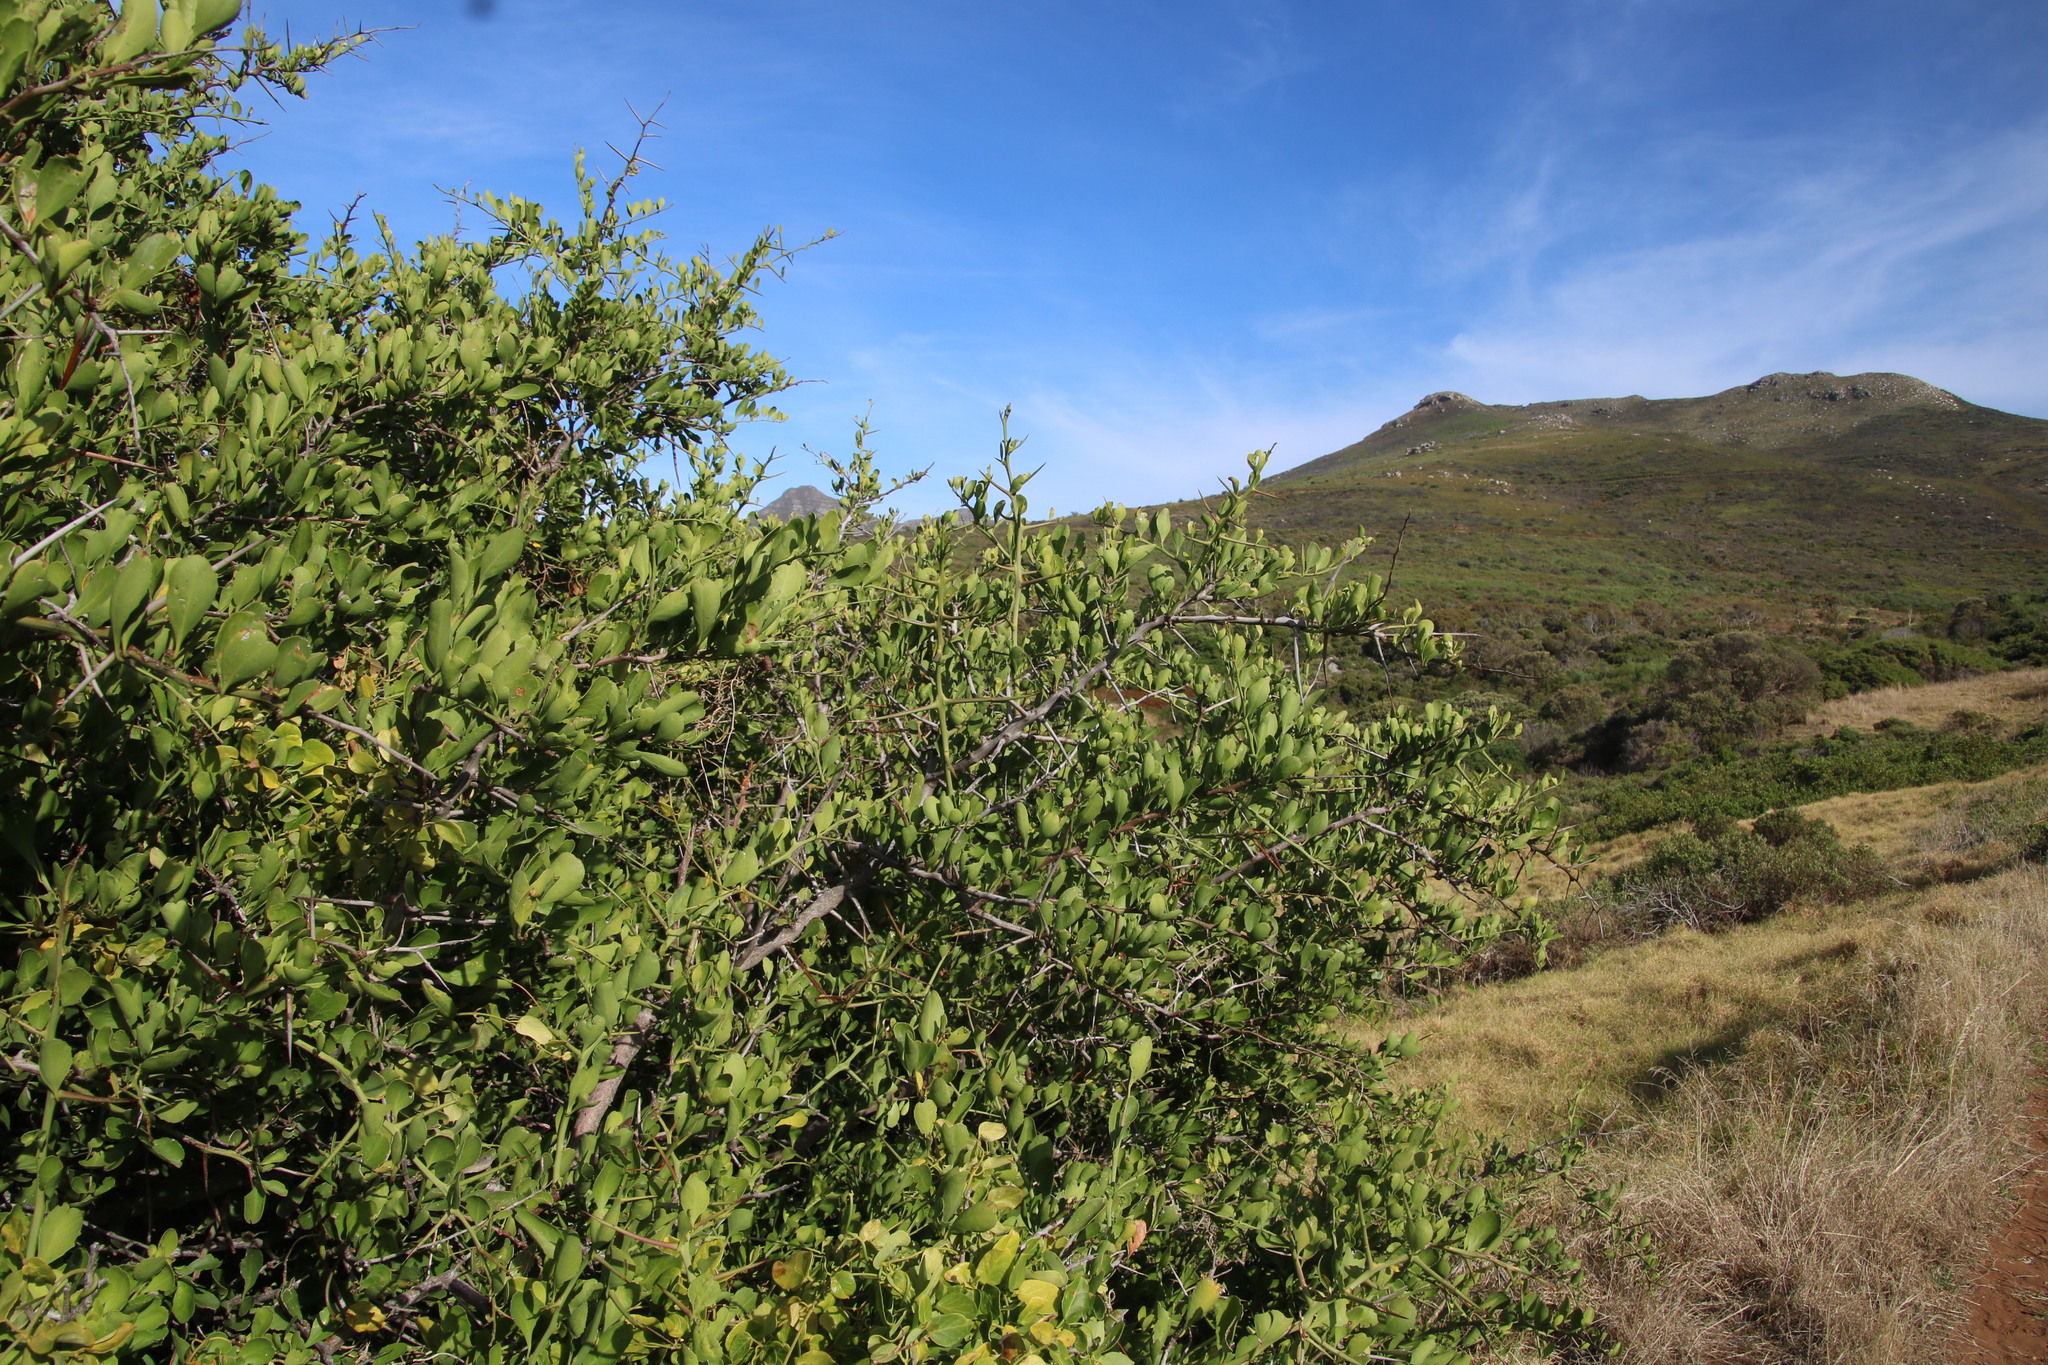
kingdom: Plantae
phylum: Tracheophyta
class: Magnoliopsida
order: Celastrales
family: Celastraceae
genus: Gymnosporia
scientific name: Gymnosporia buxifolia
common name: Common spike-thorn
